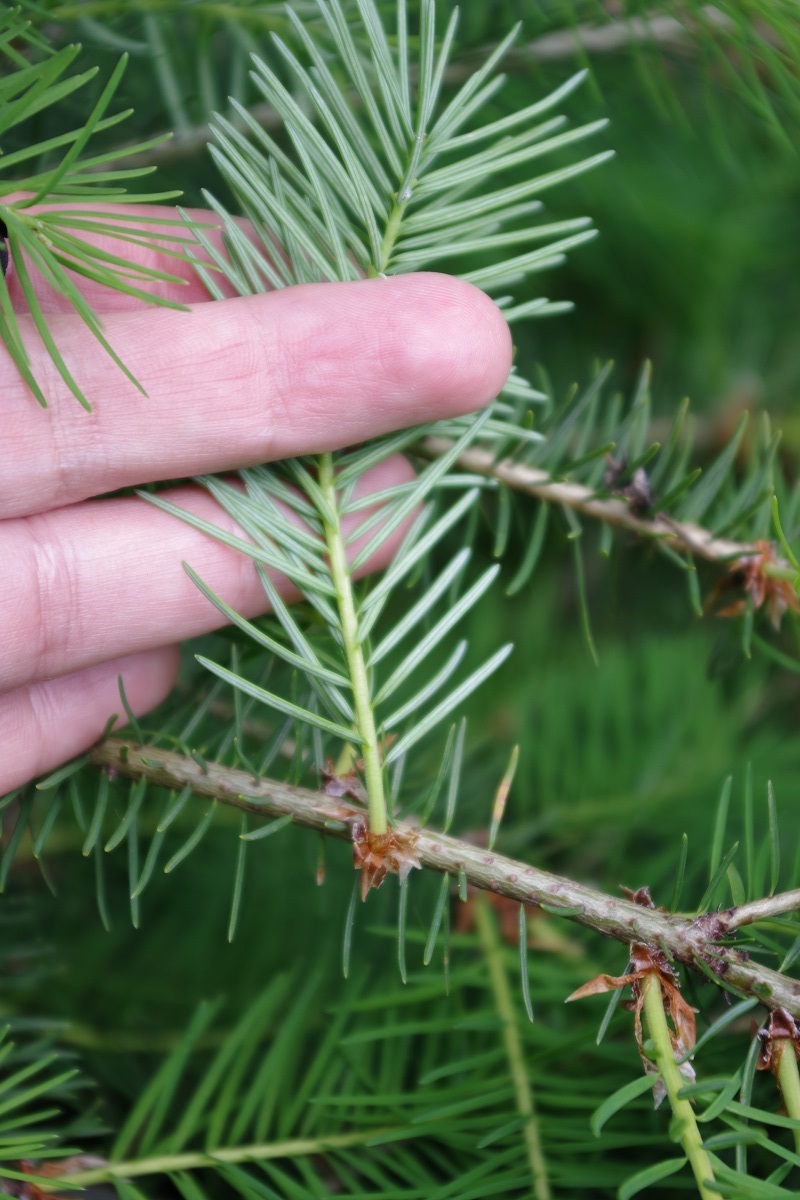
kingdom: Plantae
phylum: Tracheophyta
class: Pinopsida
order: Pinales
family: Pinaceae
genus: Pseudotsuga
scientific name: Pseudotsuga menziesii
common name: Douglas fir
